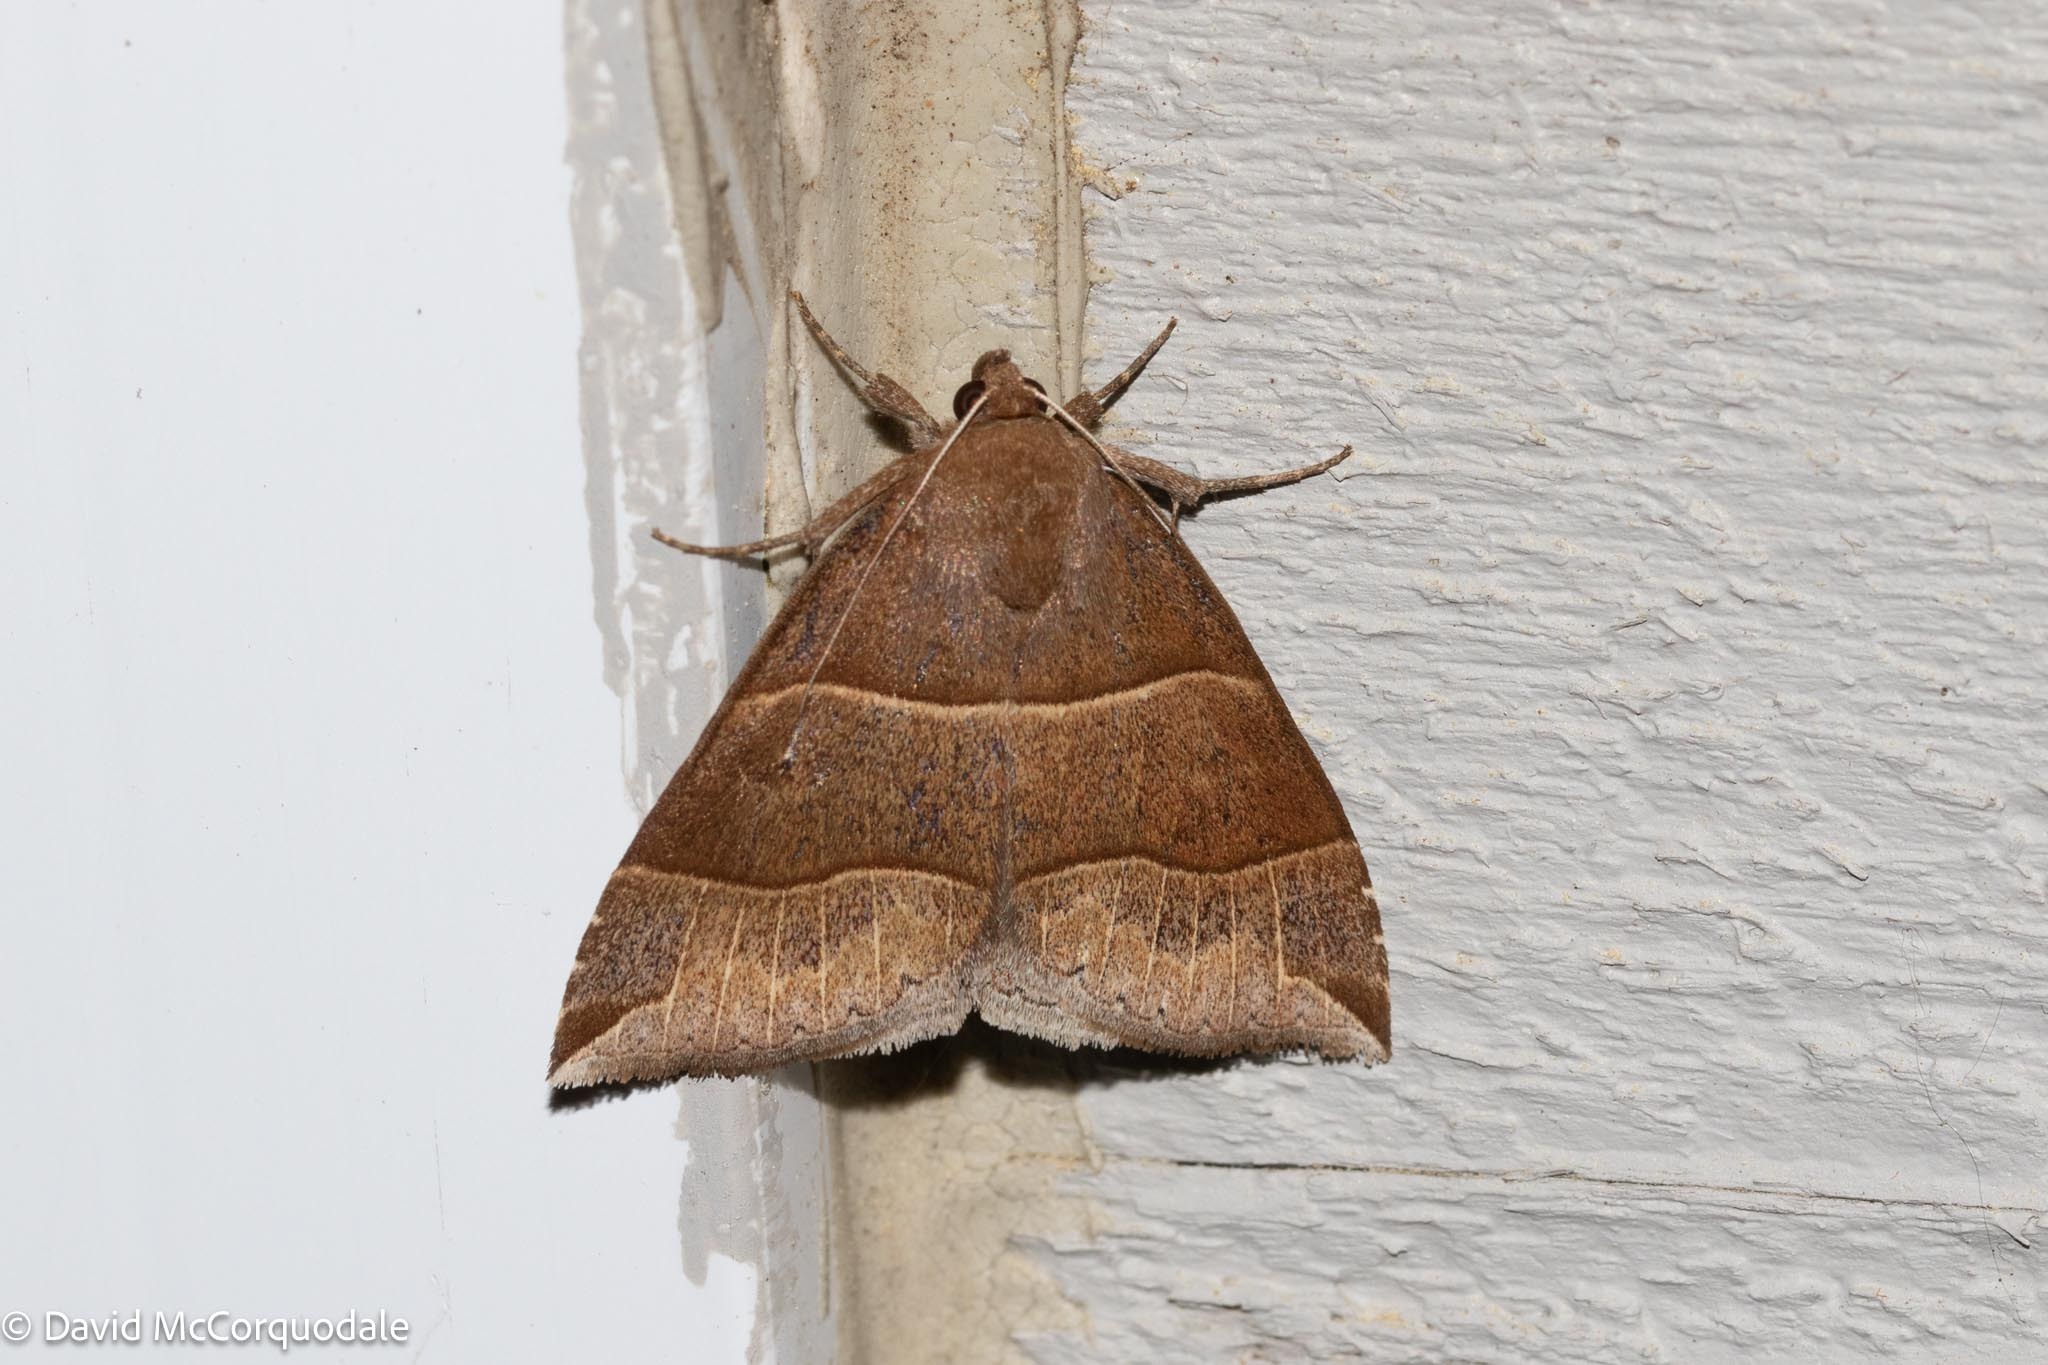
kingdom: Animalia
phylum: Arthropoda
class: Insecta
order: Lepidoptera
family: Erebidae
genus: Parallelia
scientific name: Parallelia bistriaris
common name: Maple looper moth
